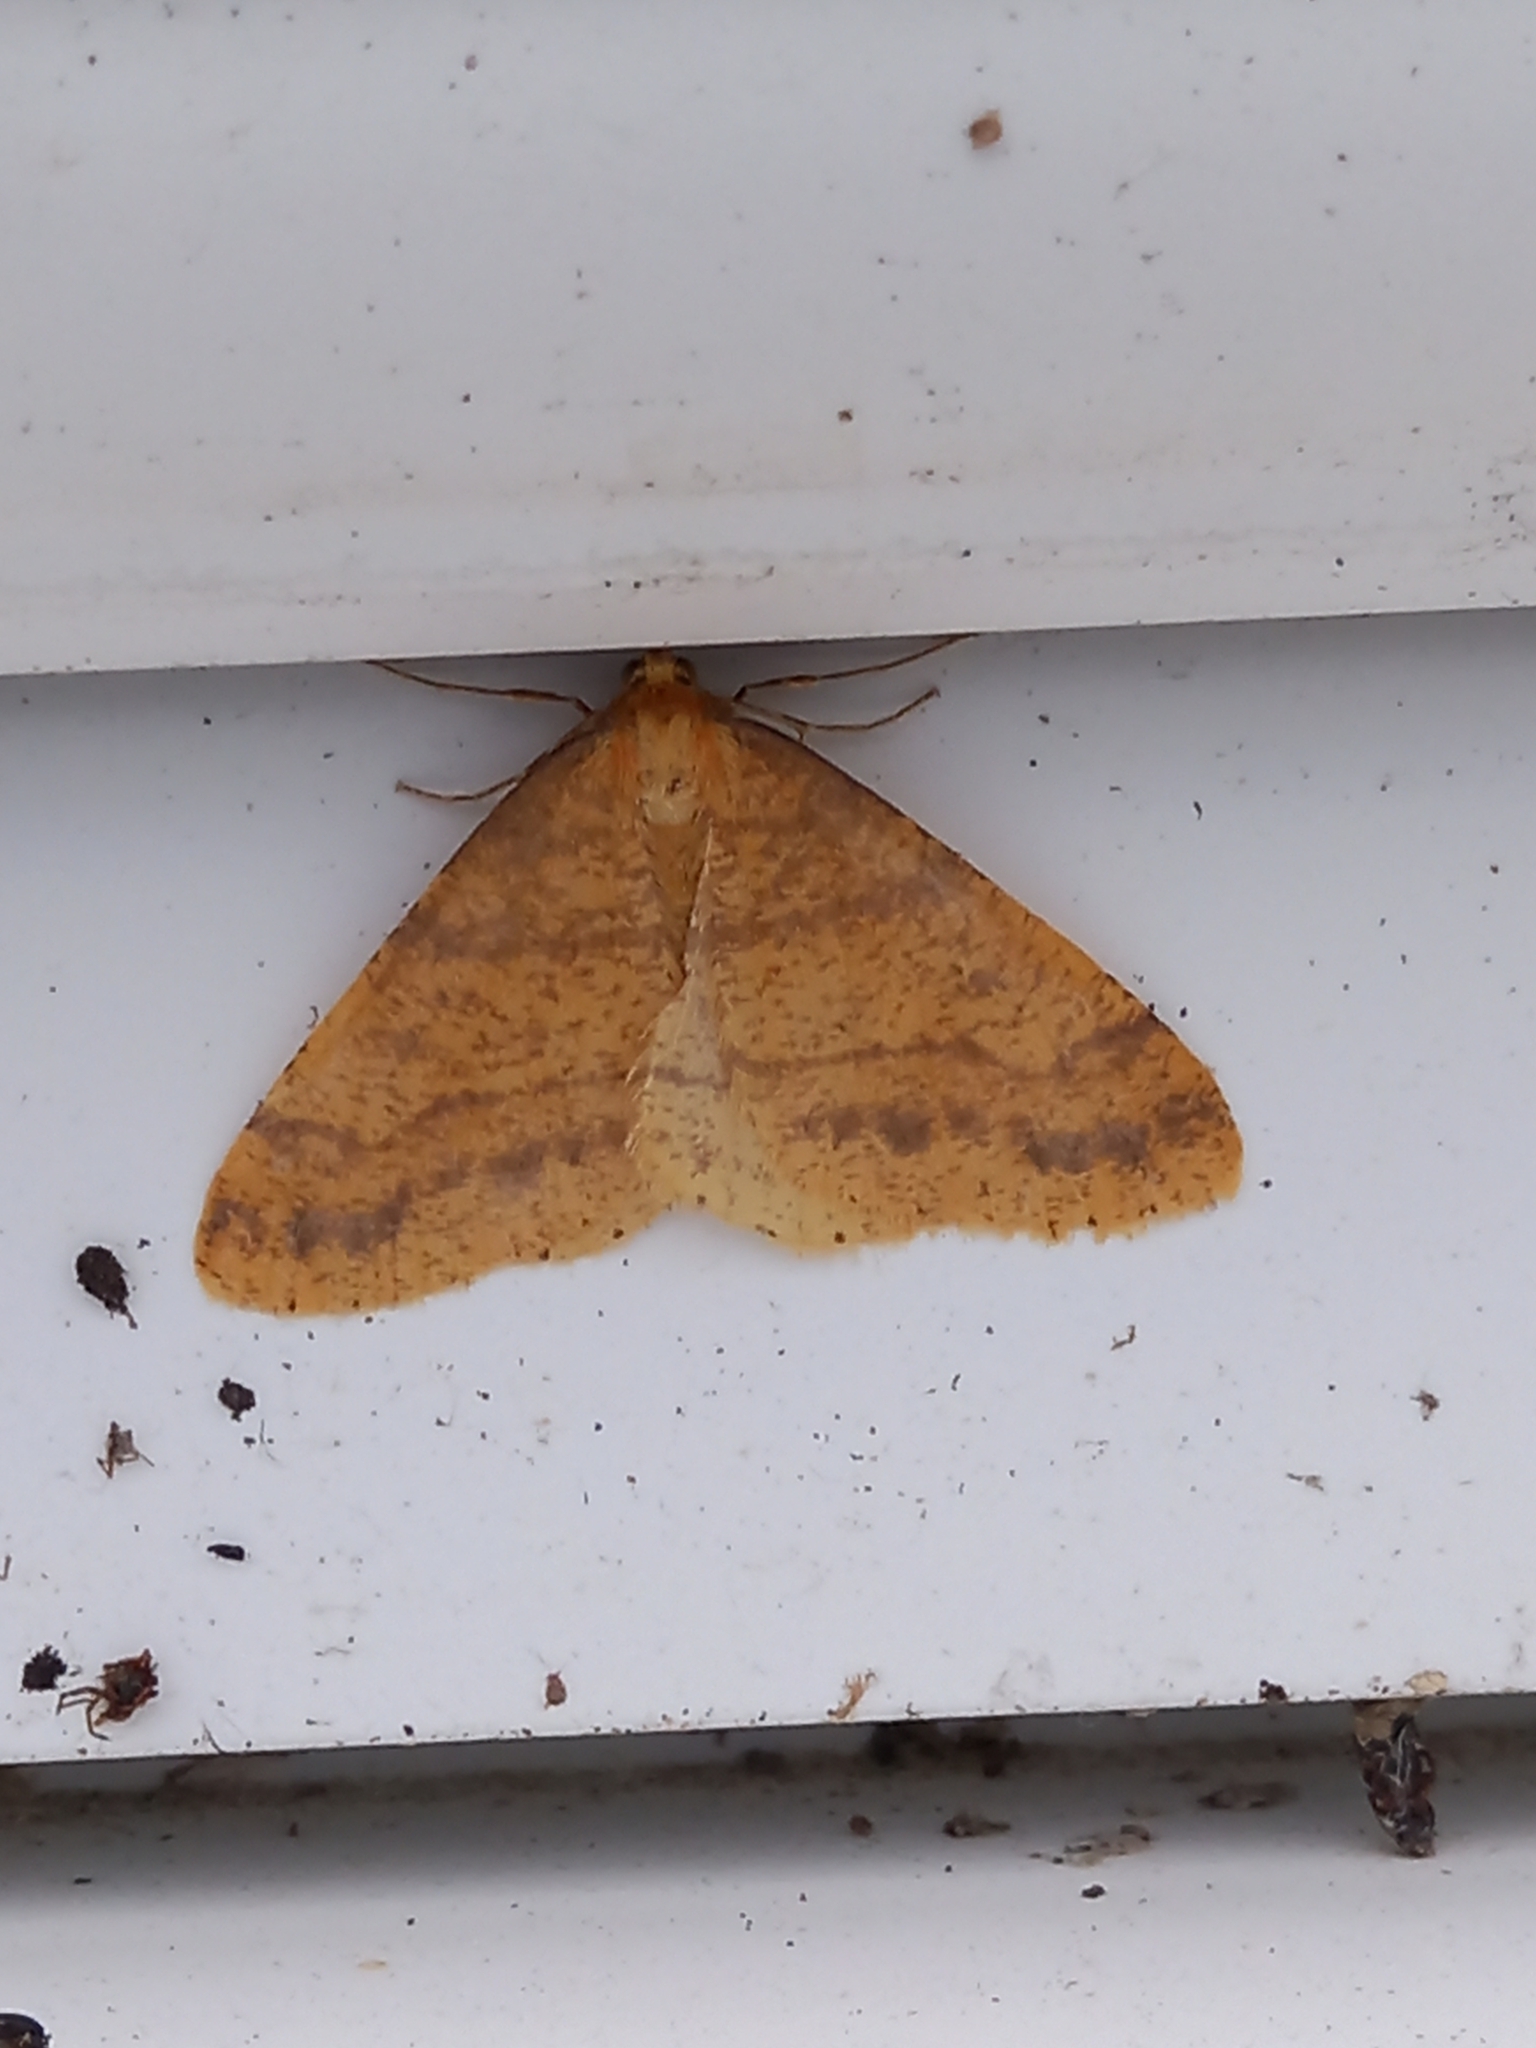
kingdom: Animalia
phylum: Arthropoda
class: Insecta
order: Lepidoptera
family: Geometridae
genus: Agriopis
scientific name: Agriopis aurantiaria
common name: Scarce umber
